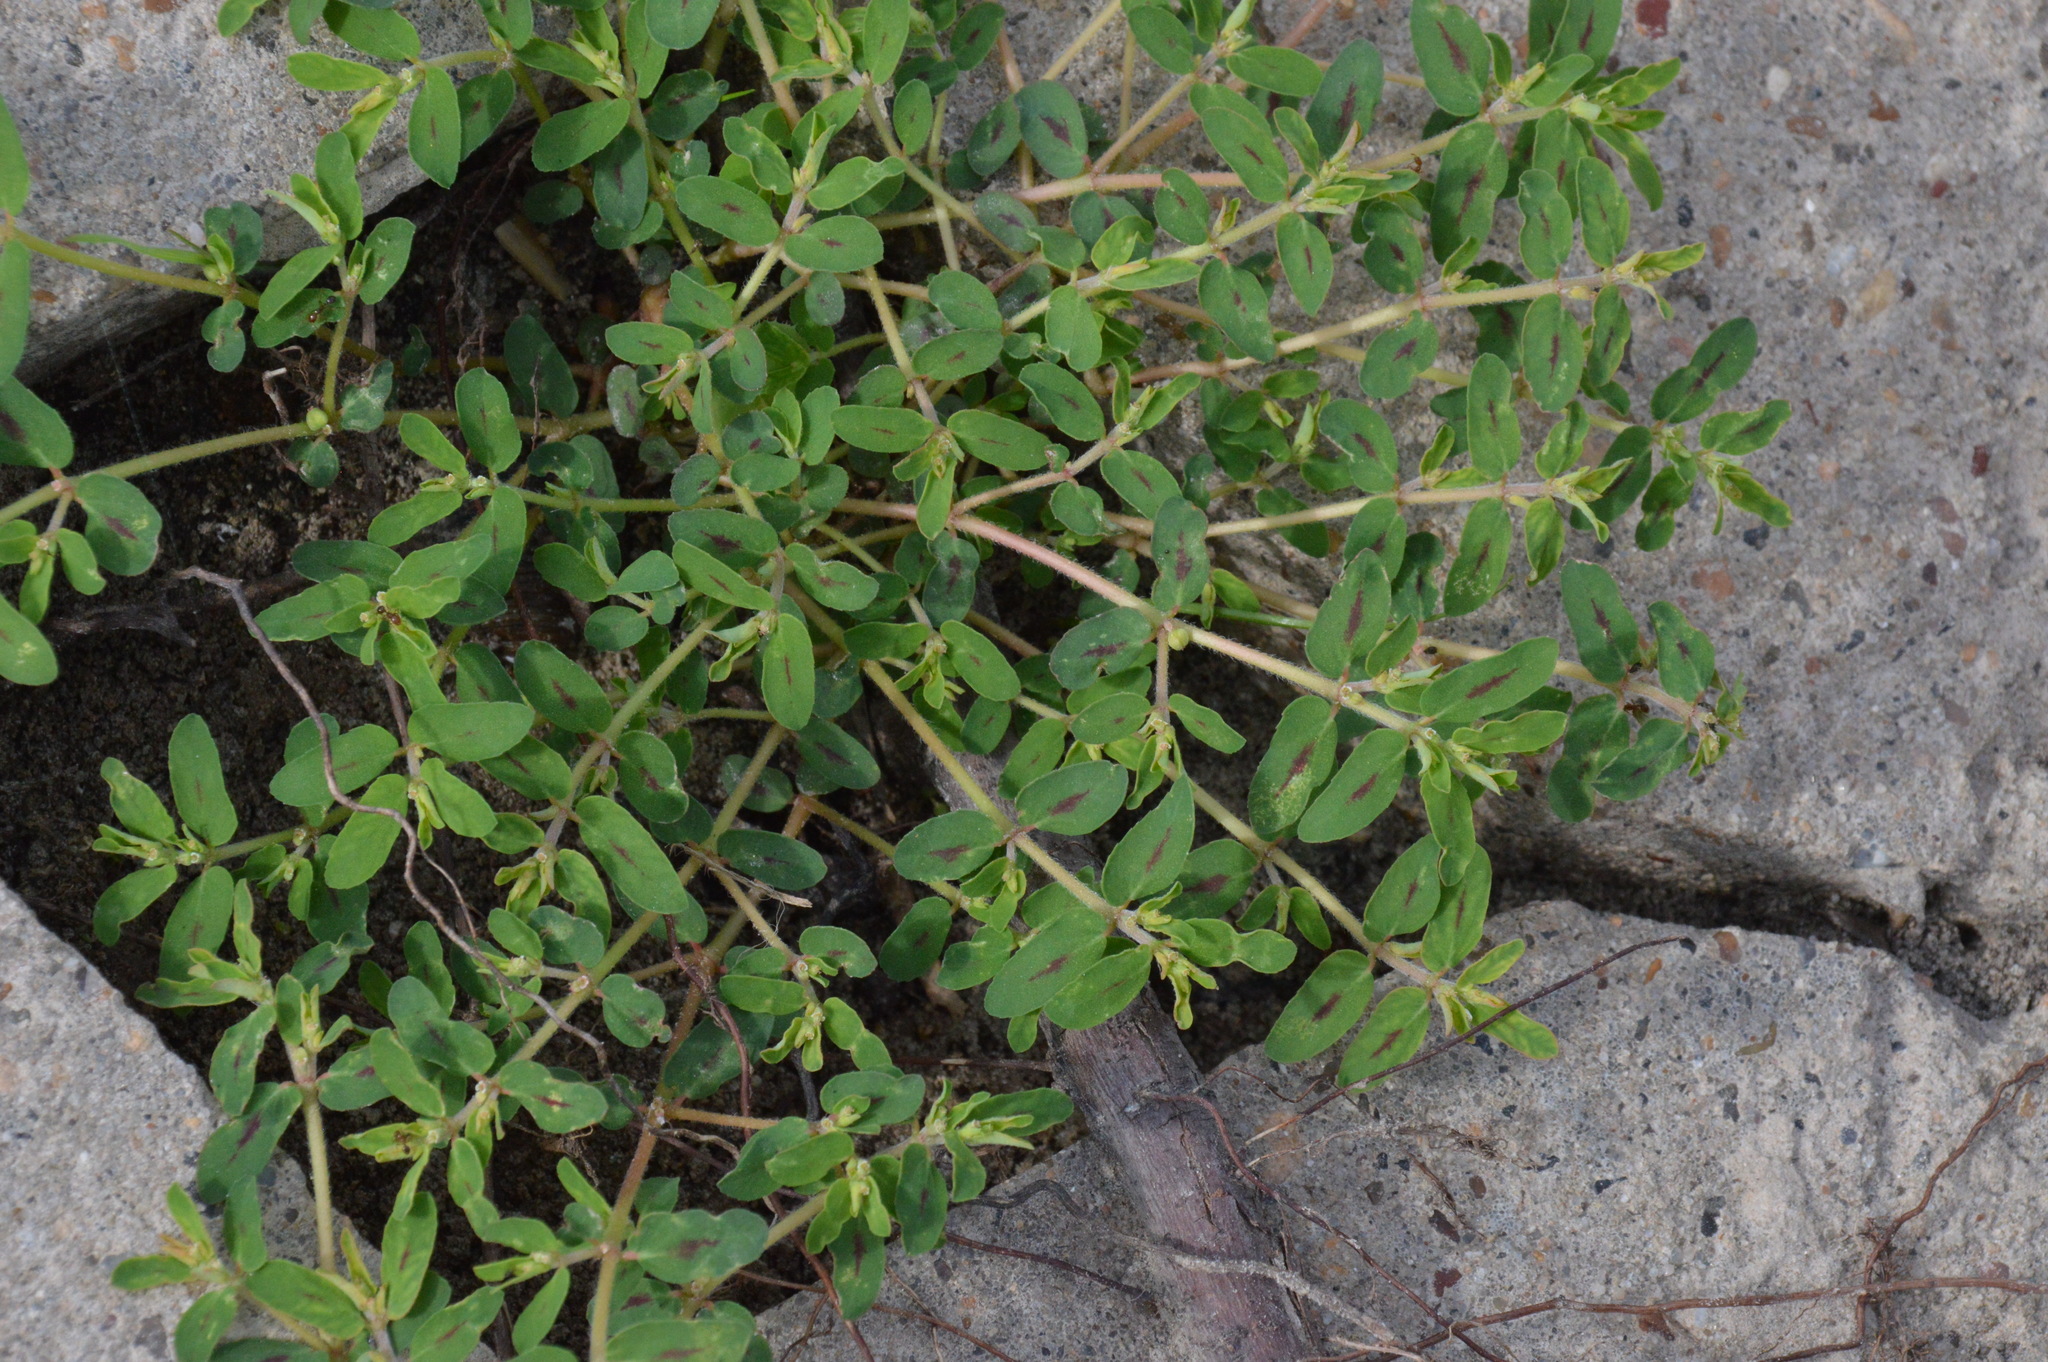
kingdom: Plantae
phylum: Tracheophyta
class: Magnoliopsida
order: Malpighiales
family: Euphorbiaceae
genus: Euphorbia
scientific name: Euphorbia maculata
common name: Spotted spurge
